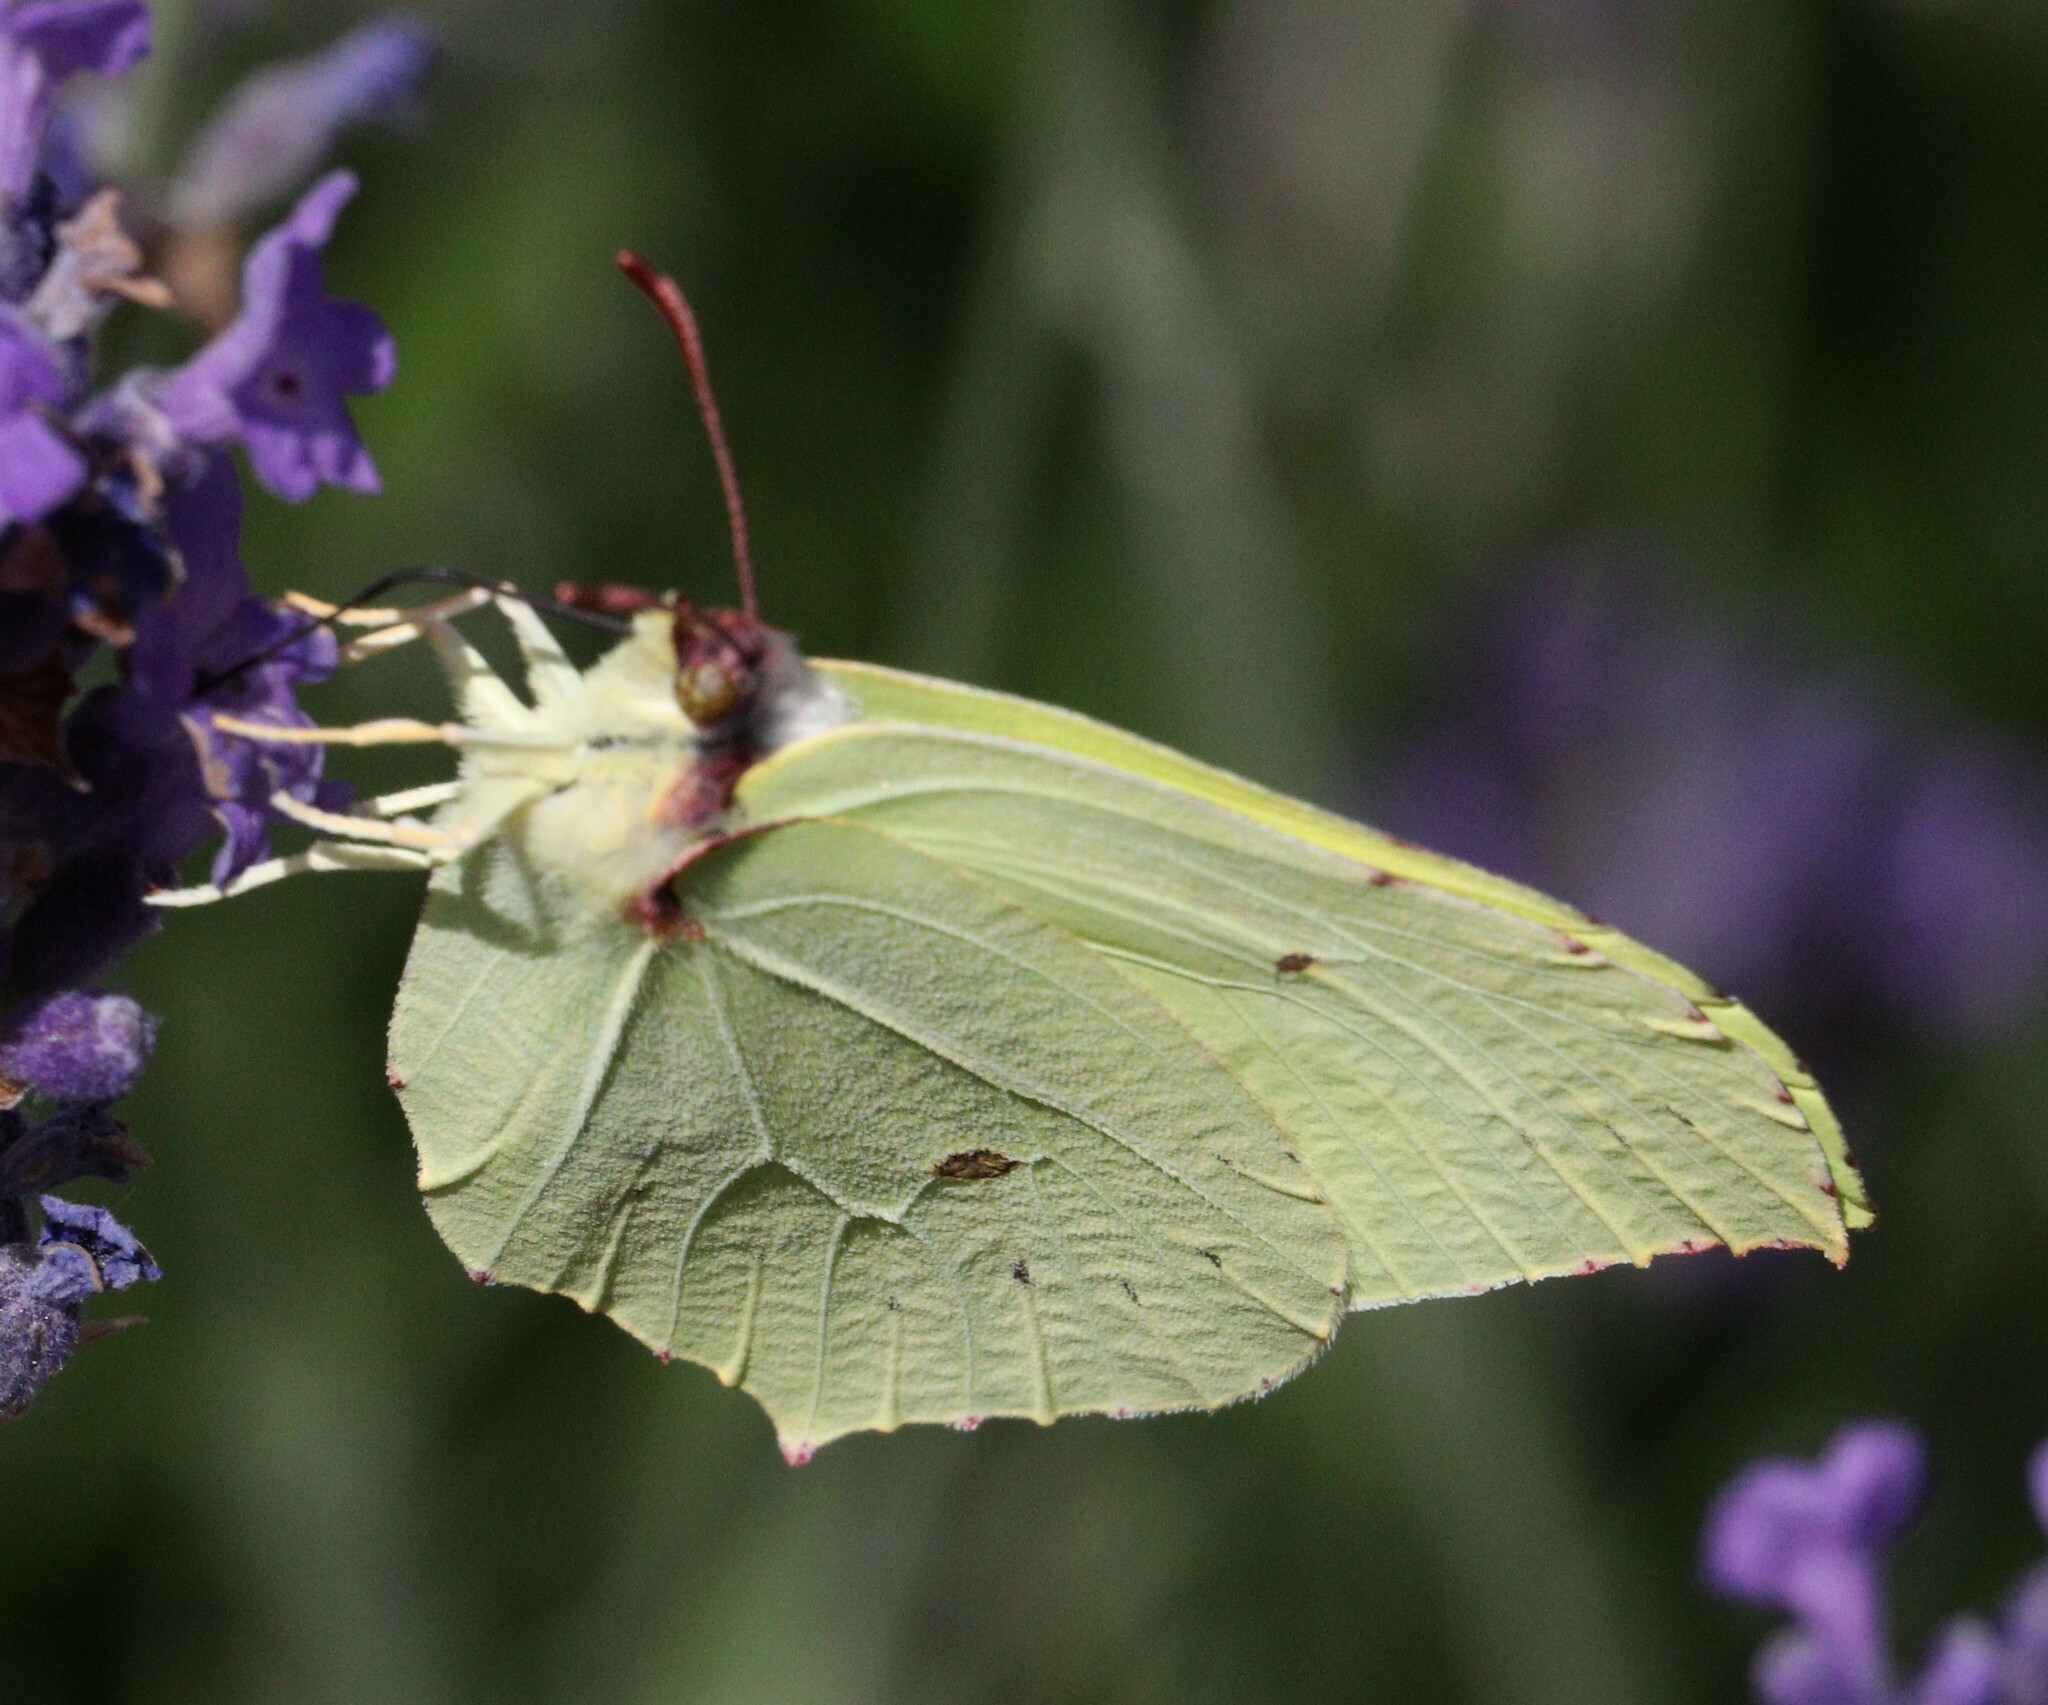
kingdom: Animalia
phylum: Arthropoda
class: Insecta
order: Lepidoptera
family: Pieridae
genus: Gonepteryx
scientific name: Gonepteryx rhamni
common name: Brimstone
